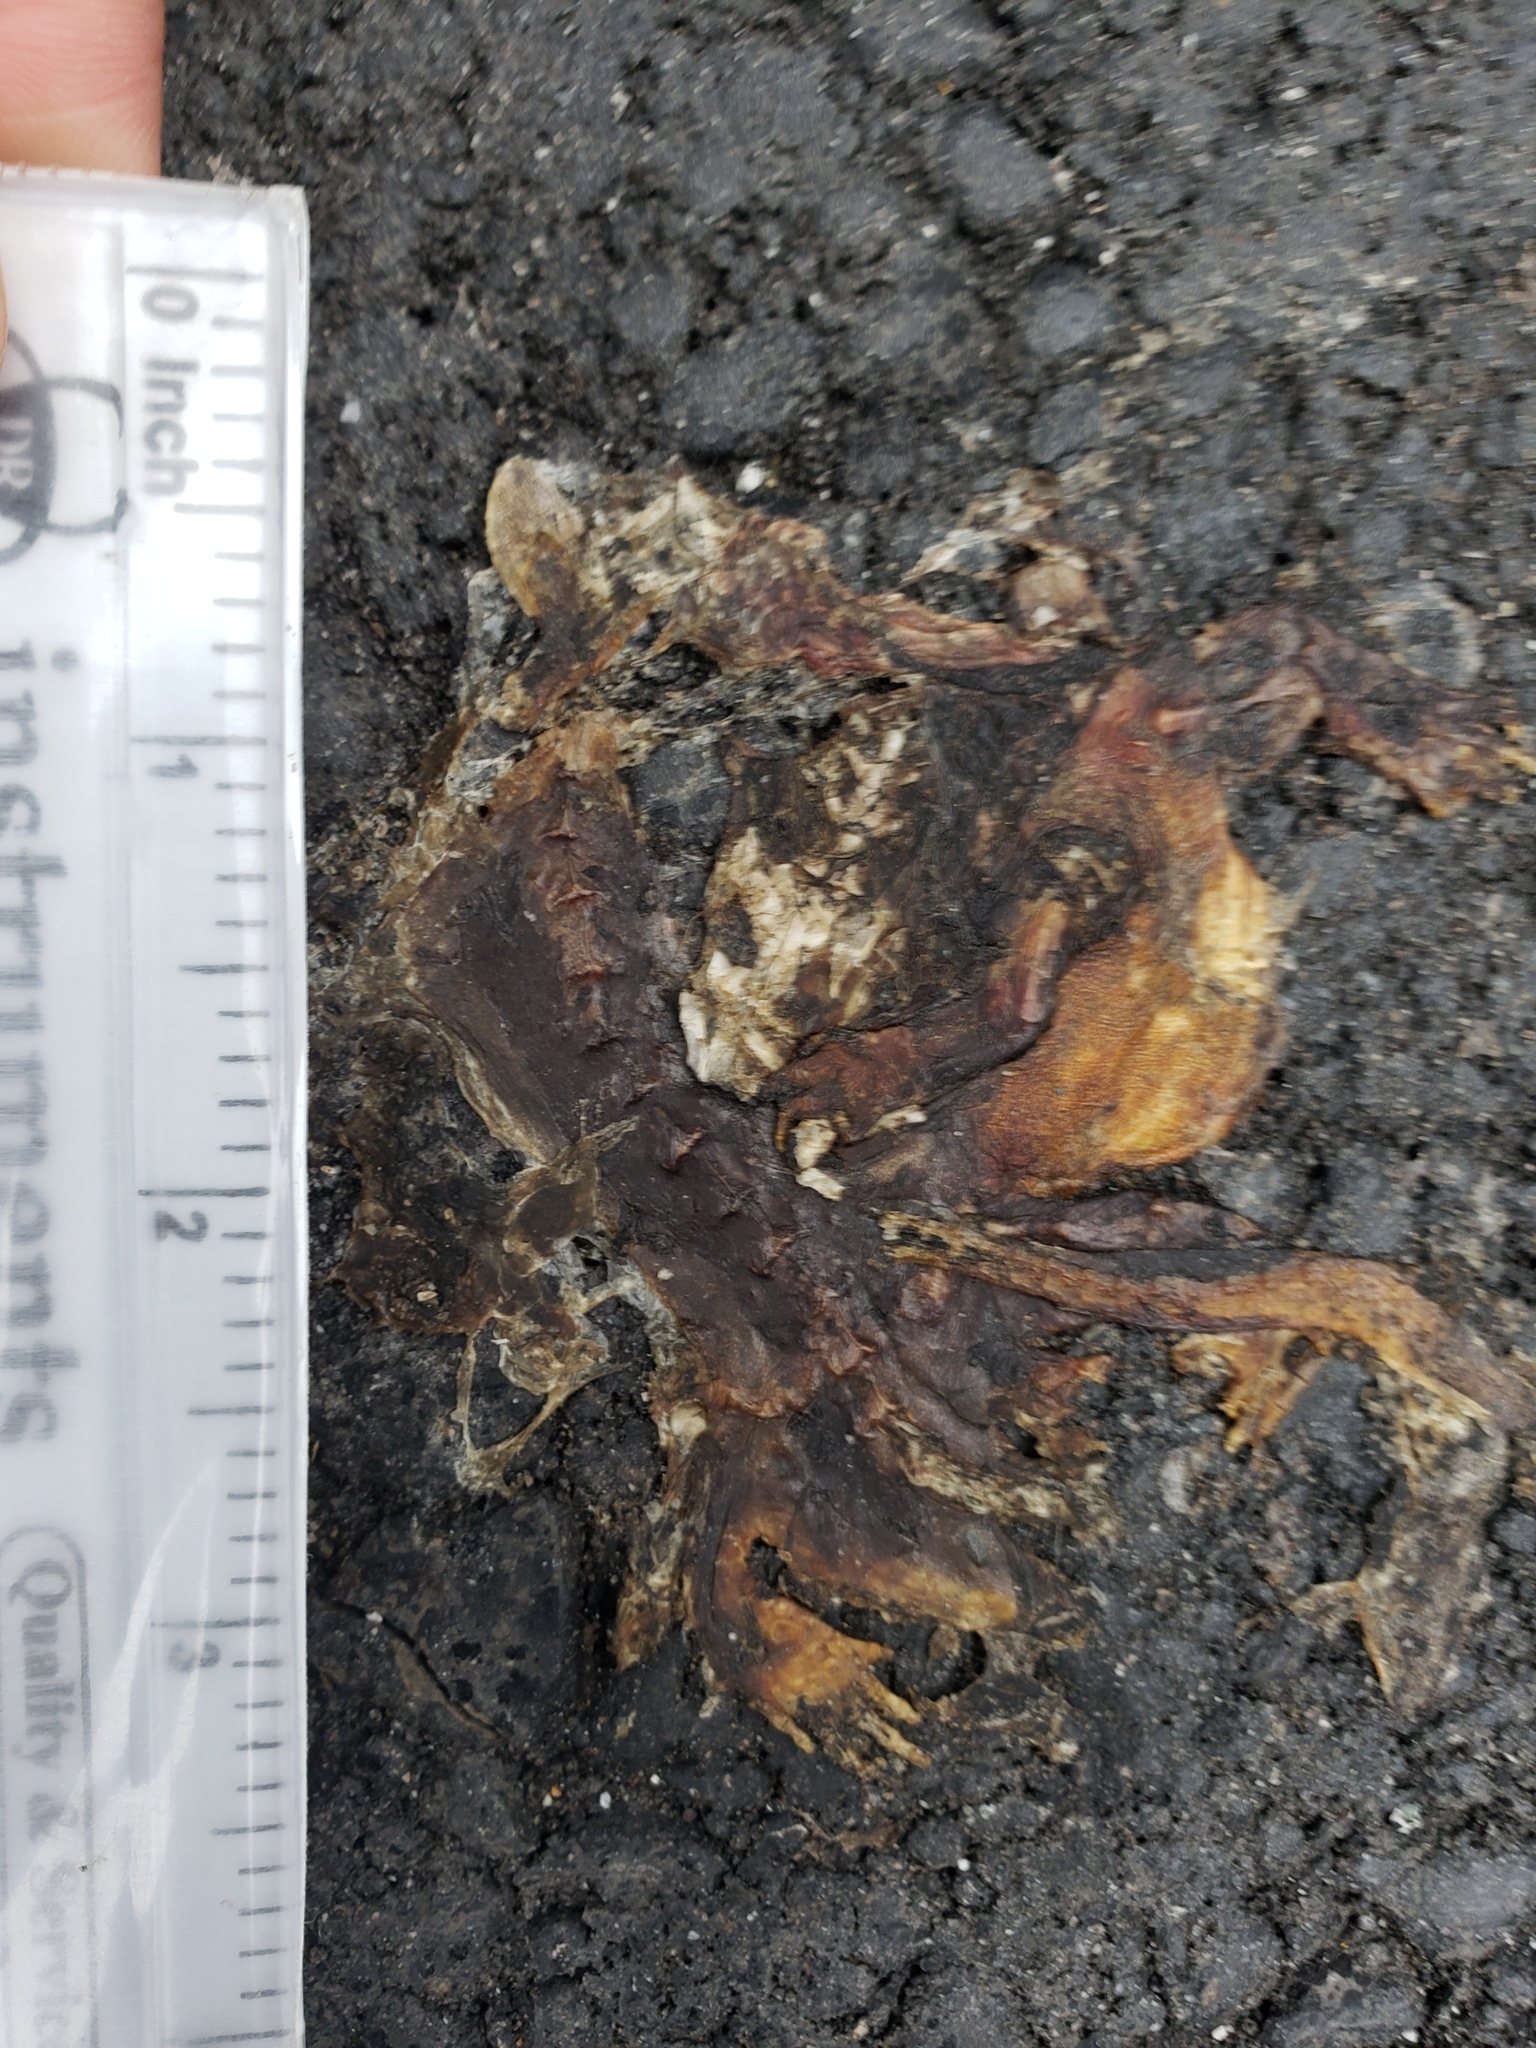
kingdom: Animalia
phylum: Chordata
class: Amphibia
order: Caudata
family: Salamandridae
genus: Taricha
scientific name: Taricha
